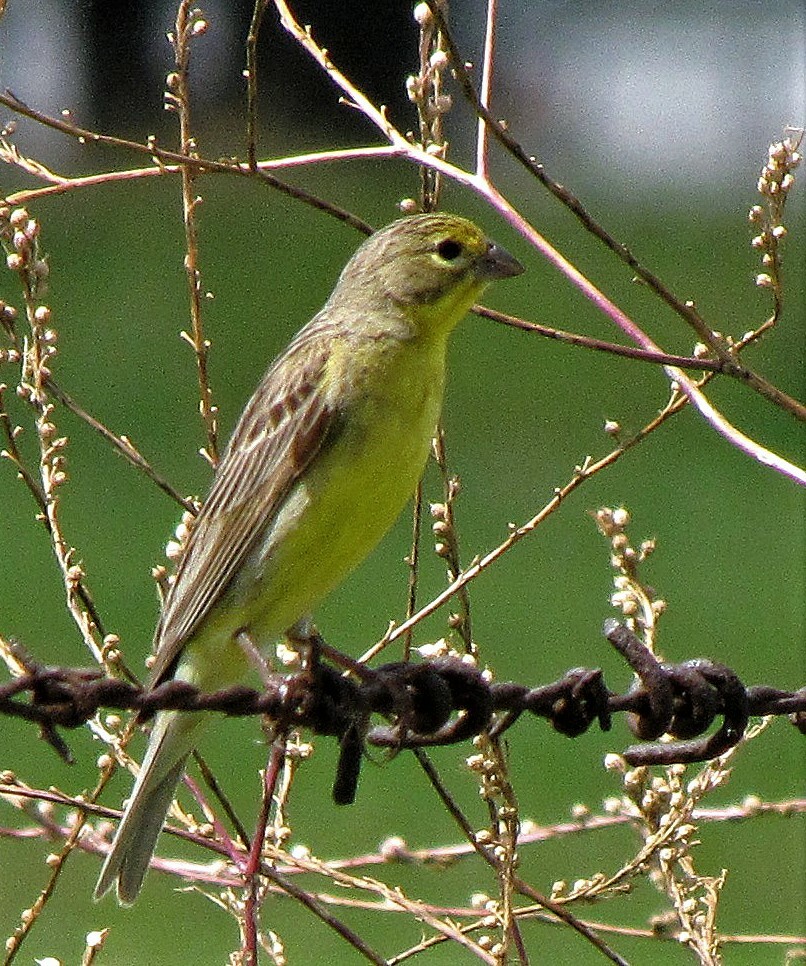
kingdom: Animalia
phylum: Chordata
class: Aves
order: Passeriformes
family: Thraupidae
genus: Sicalis
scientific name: Sicalis luteola
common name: Grassland yellow-finch
